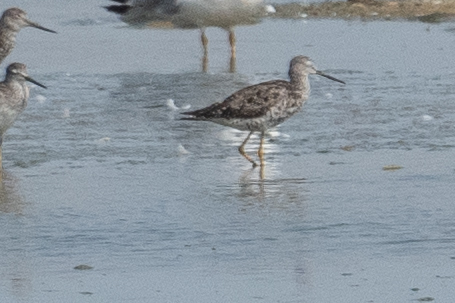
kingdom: Animalia
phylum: Chordata
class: Aves
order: Charadriiformes
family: Scolopacidae
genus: Tringa
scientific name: Tringa melanoleuca
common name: Greater yellowlegs
